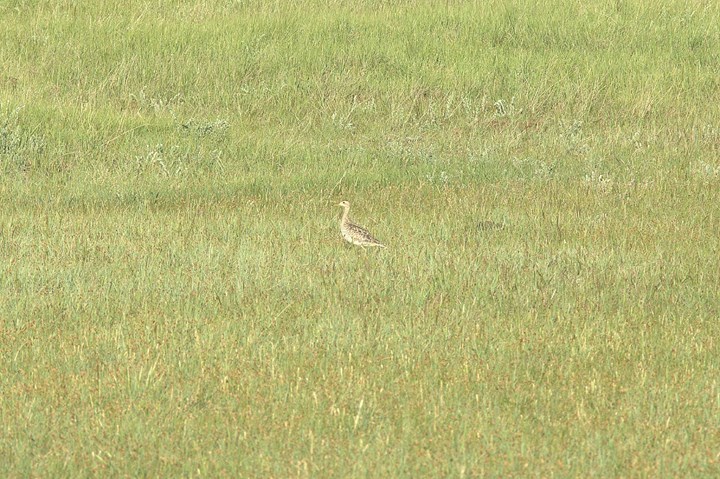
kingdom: Animalia
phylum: Chordata
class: Aves
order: Charadriiformes
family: Scolopacidae
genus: Bartramia
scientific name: Bartramia longicauda
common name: Upland sandpiper
